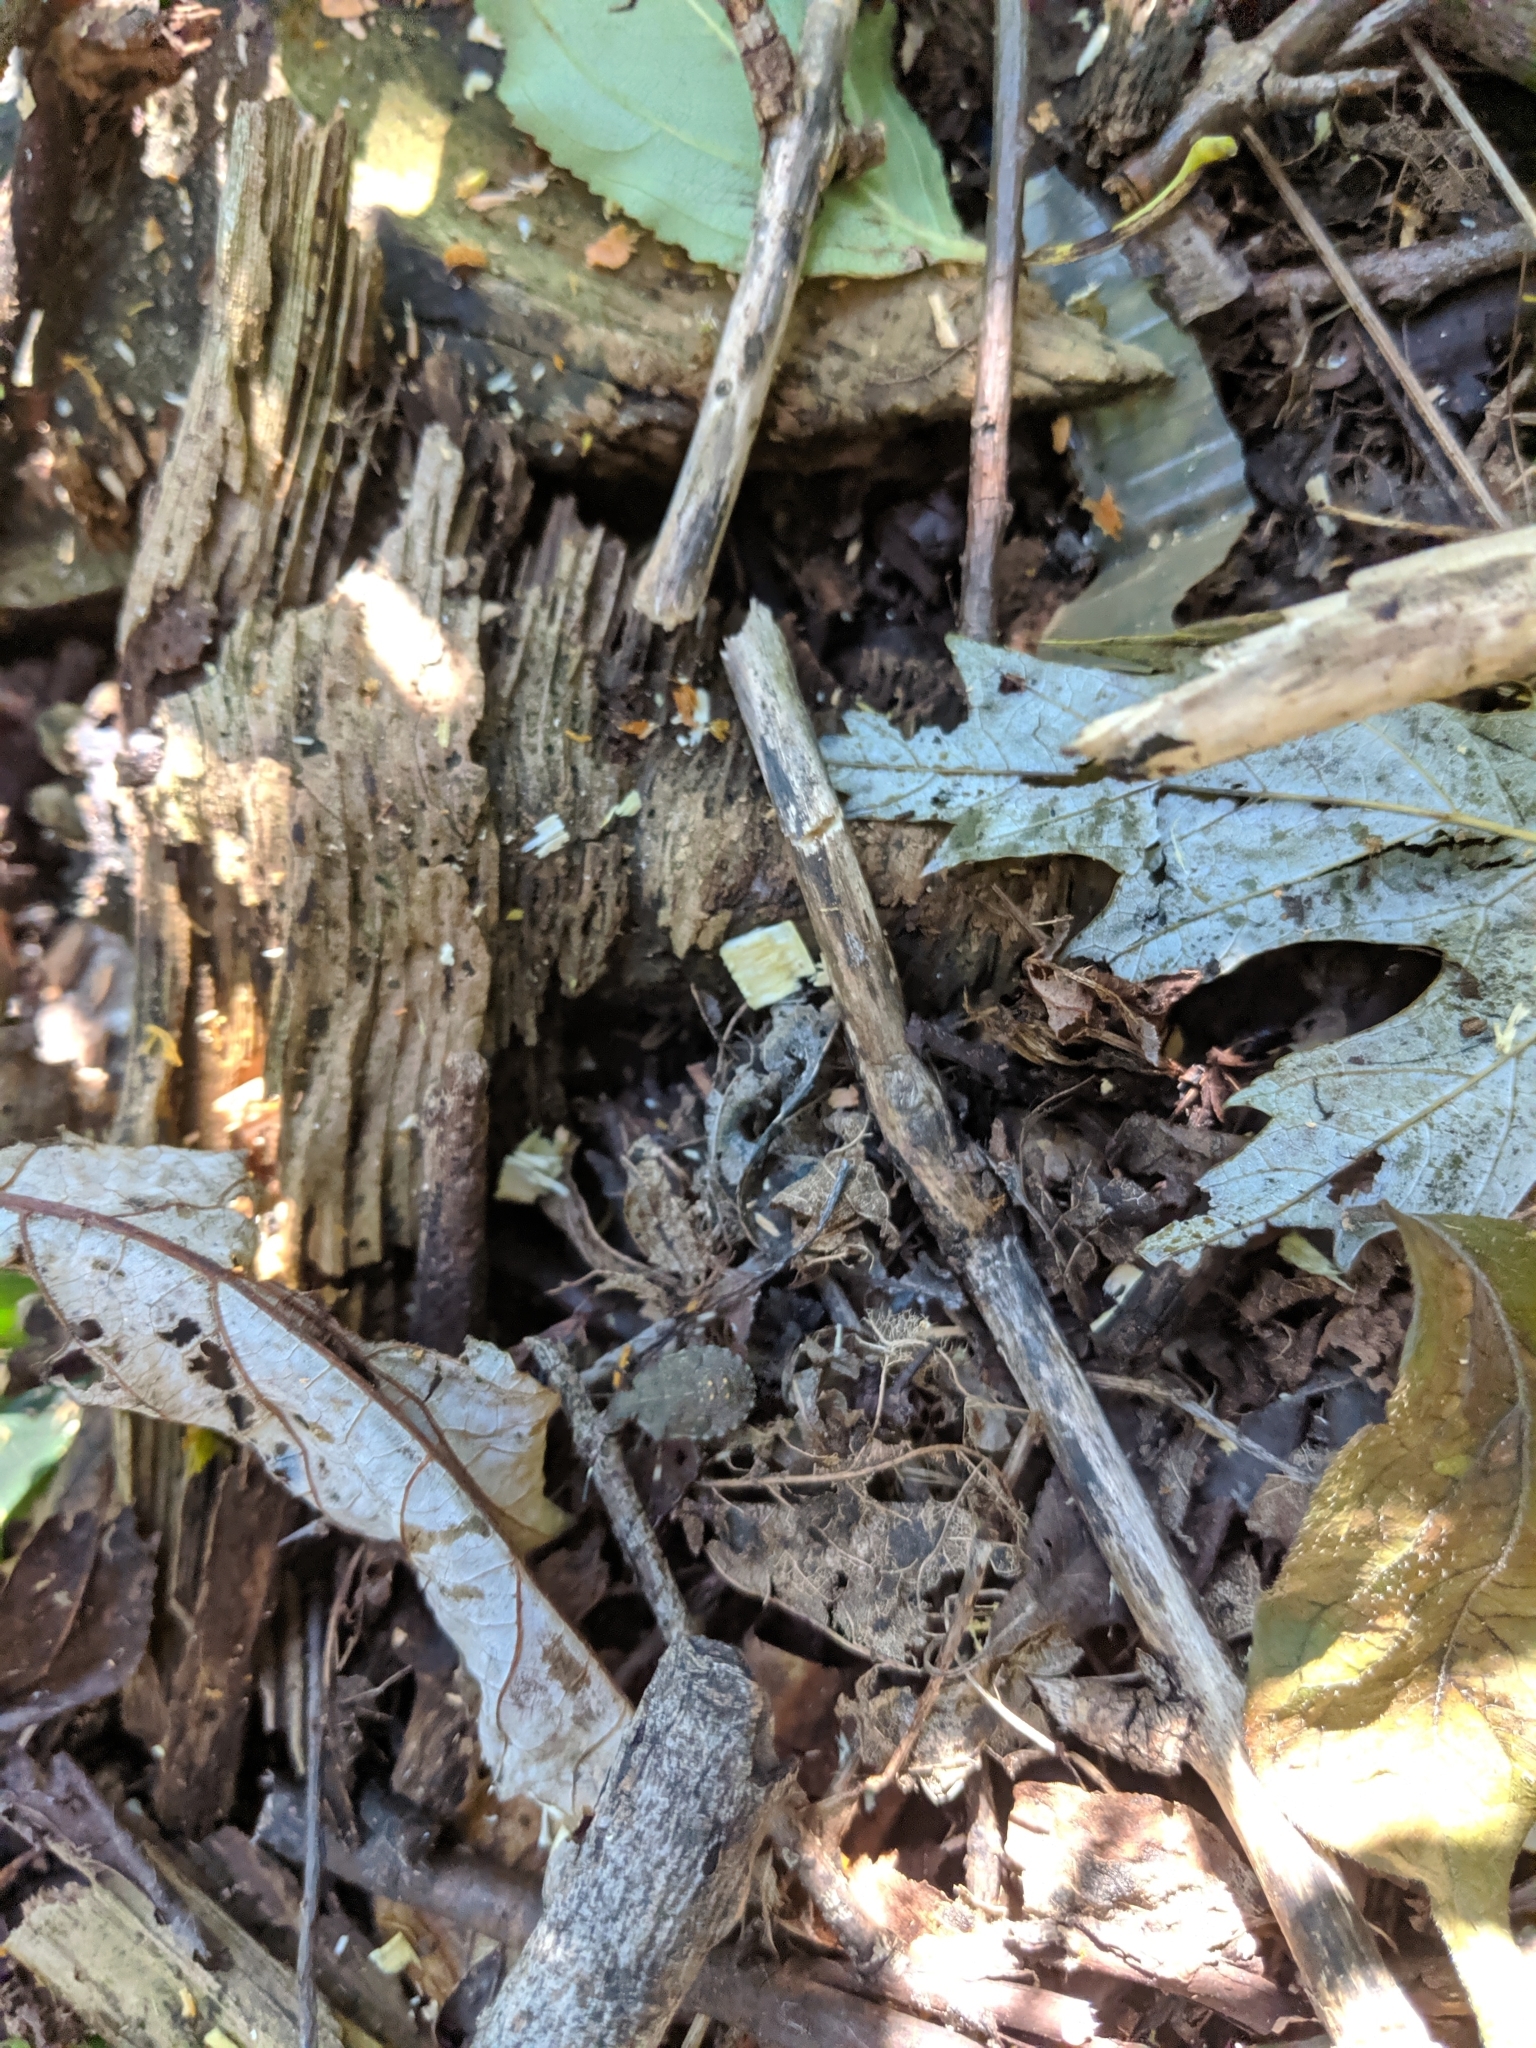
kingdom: Animalia
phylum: Arthropoda
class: Insecta
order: Hemiptera
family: Pentatomidae
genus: Halyomorpha
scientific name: Halyomorpha halys
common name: Brown marmorated stink bug
